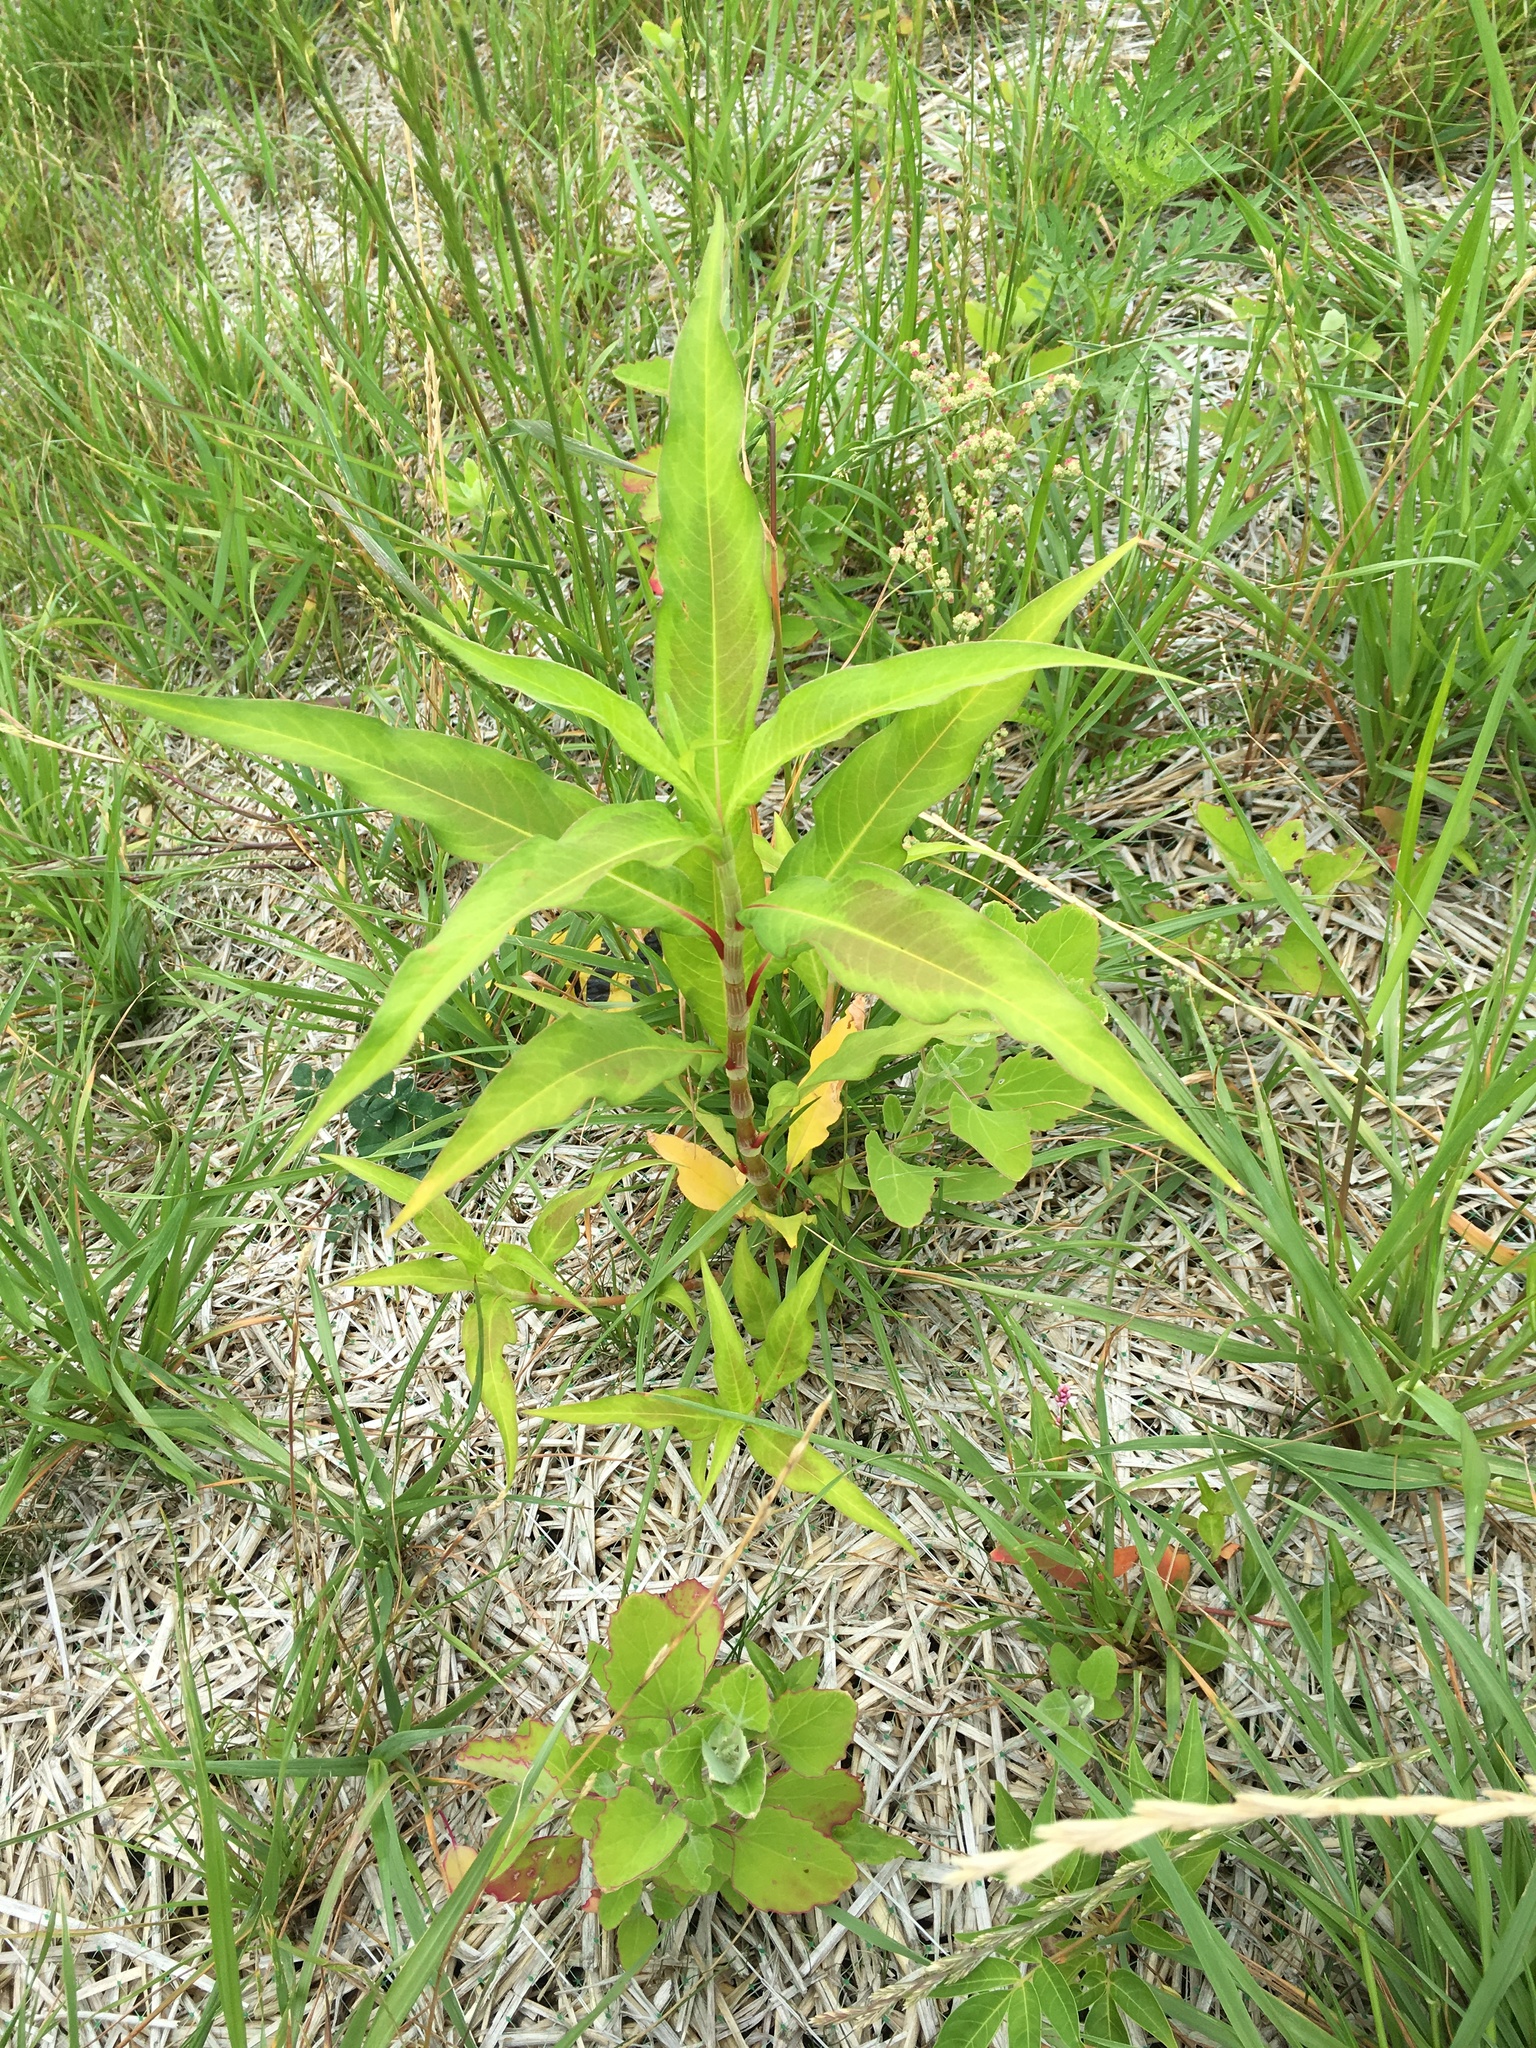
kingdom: Plantae
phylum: Tracheophyta
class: Magnoliopsida
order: Caryophyllales
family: Polygonaceae
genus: Persicaria
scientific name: Persicaria extremiorientalis
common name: Far-eastern smartweed
